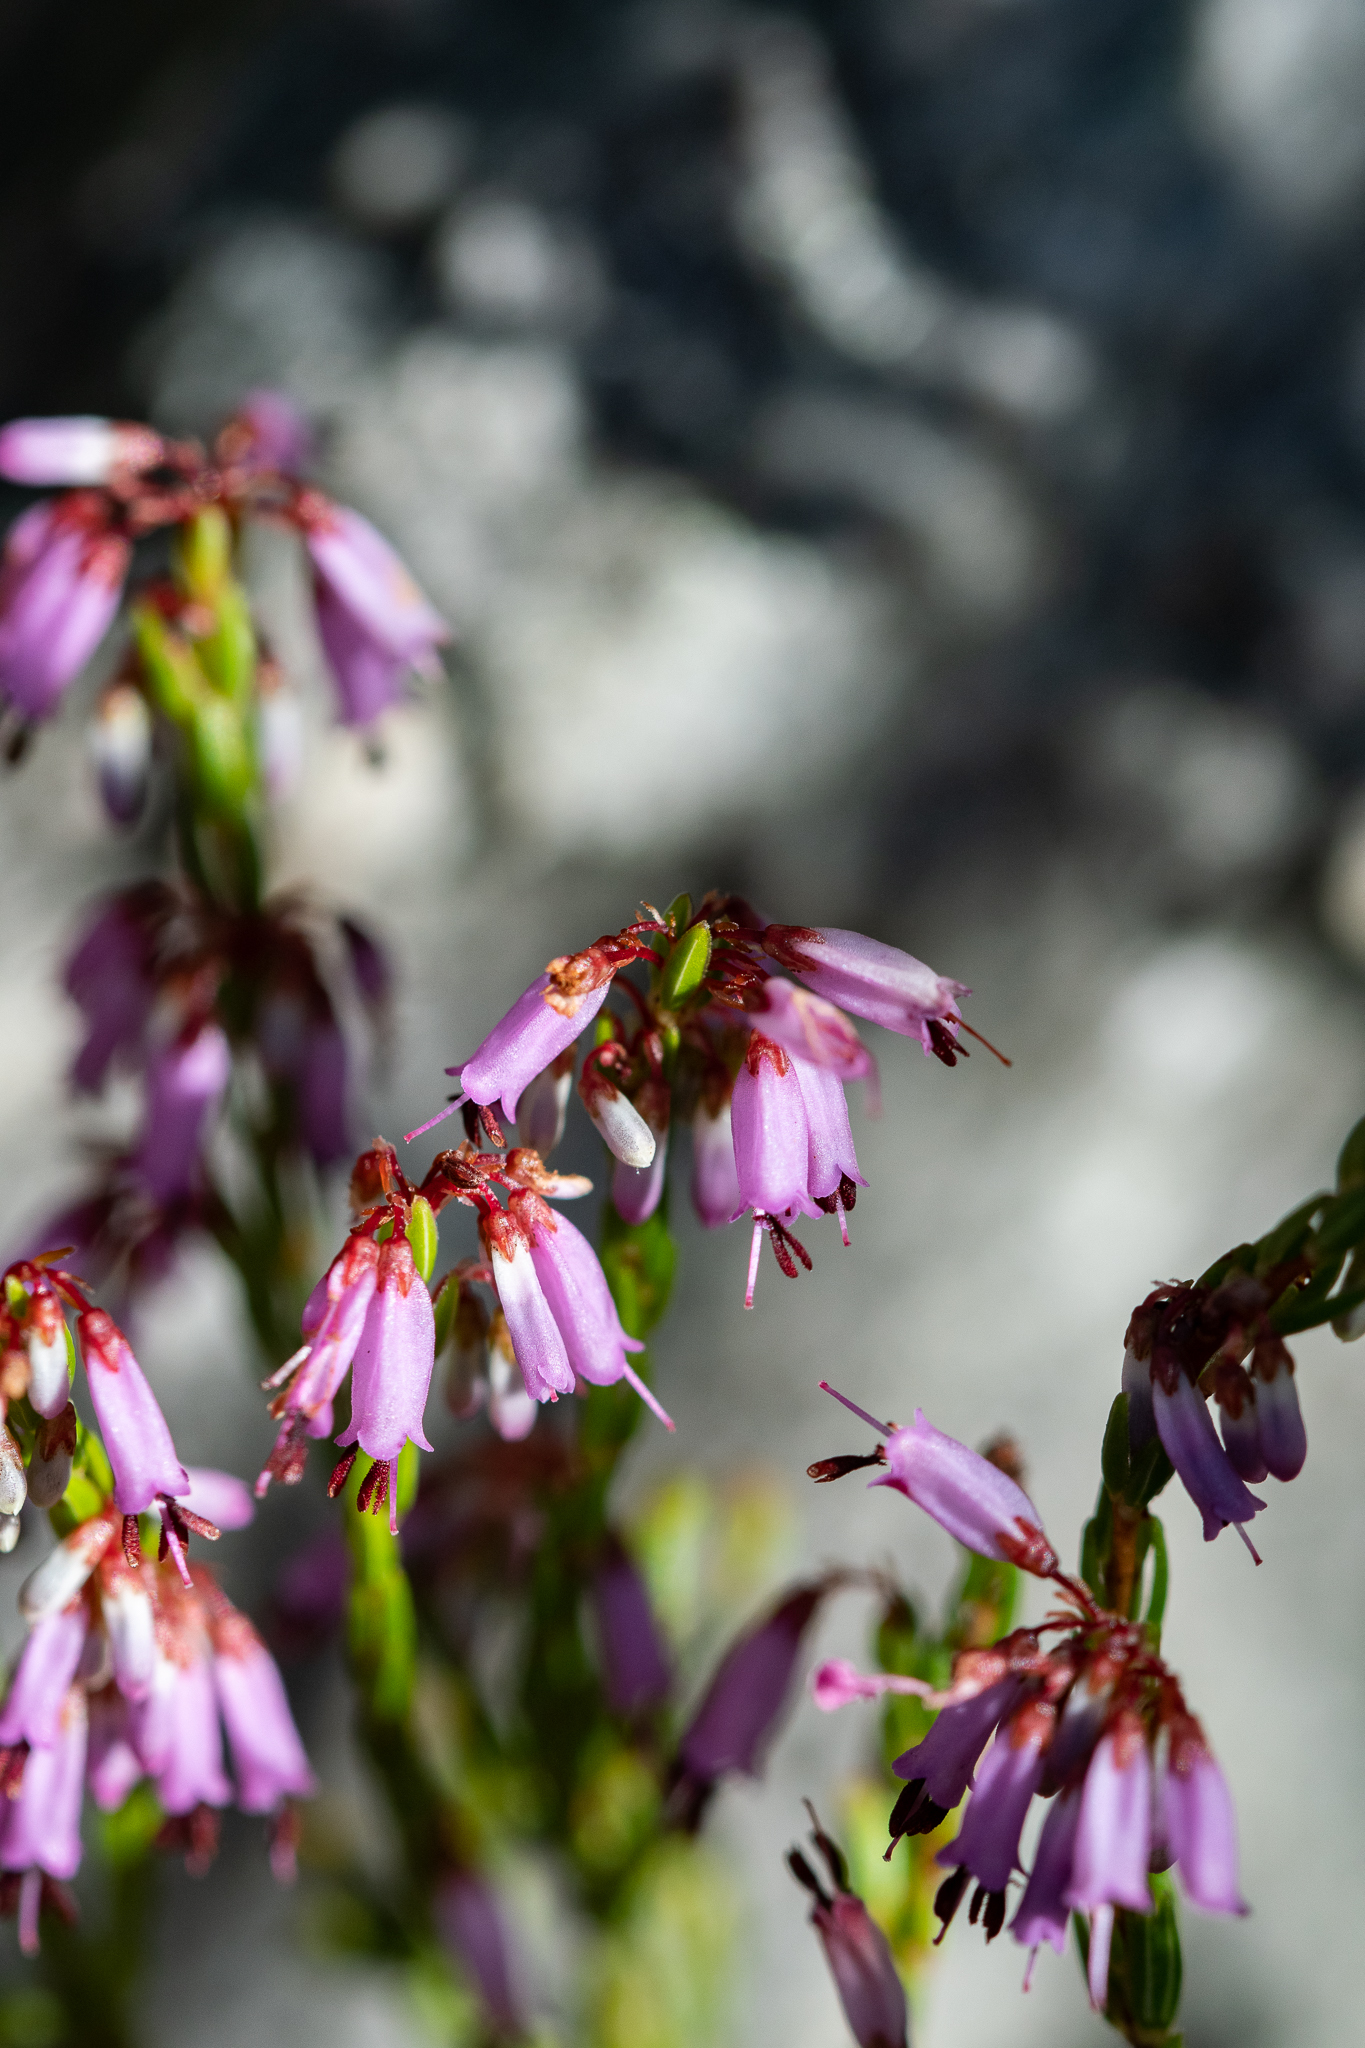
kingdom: Plantae
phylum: Tracheophyta
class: Magnoliopsida
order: Ericales
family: Ericaceae
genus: Erica
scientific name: Erica equisetifolia
